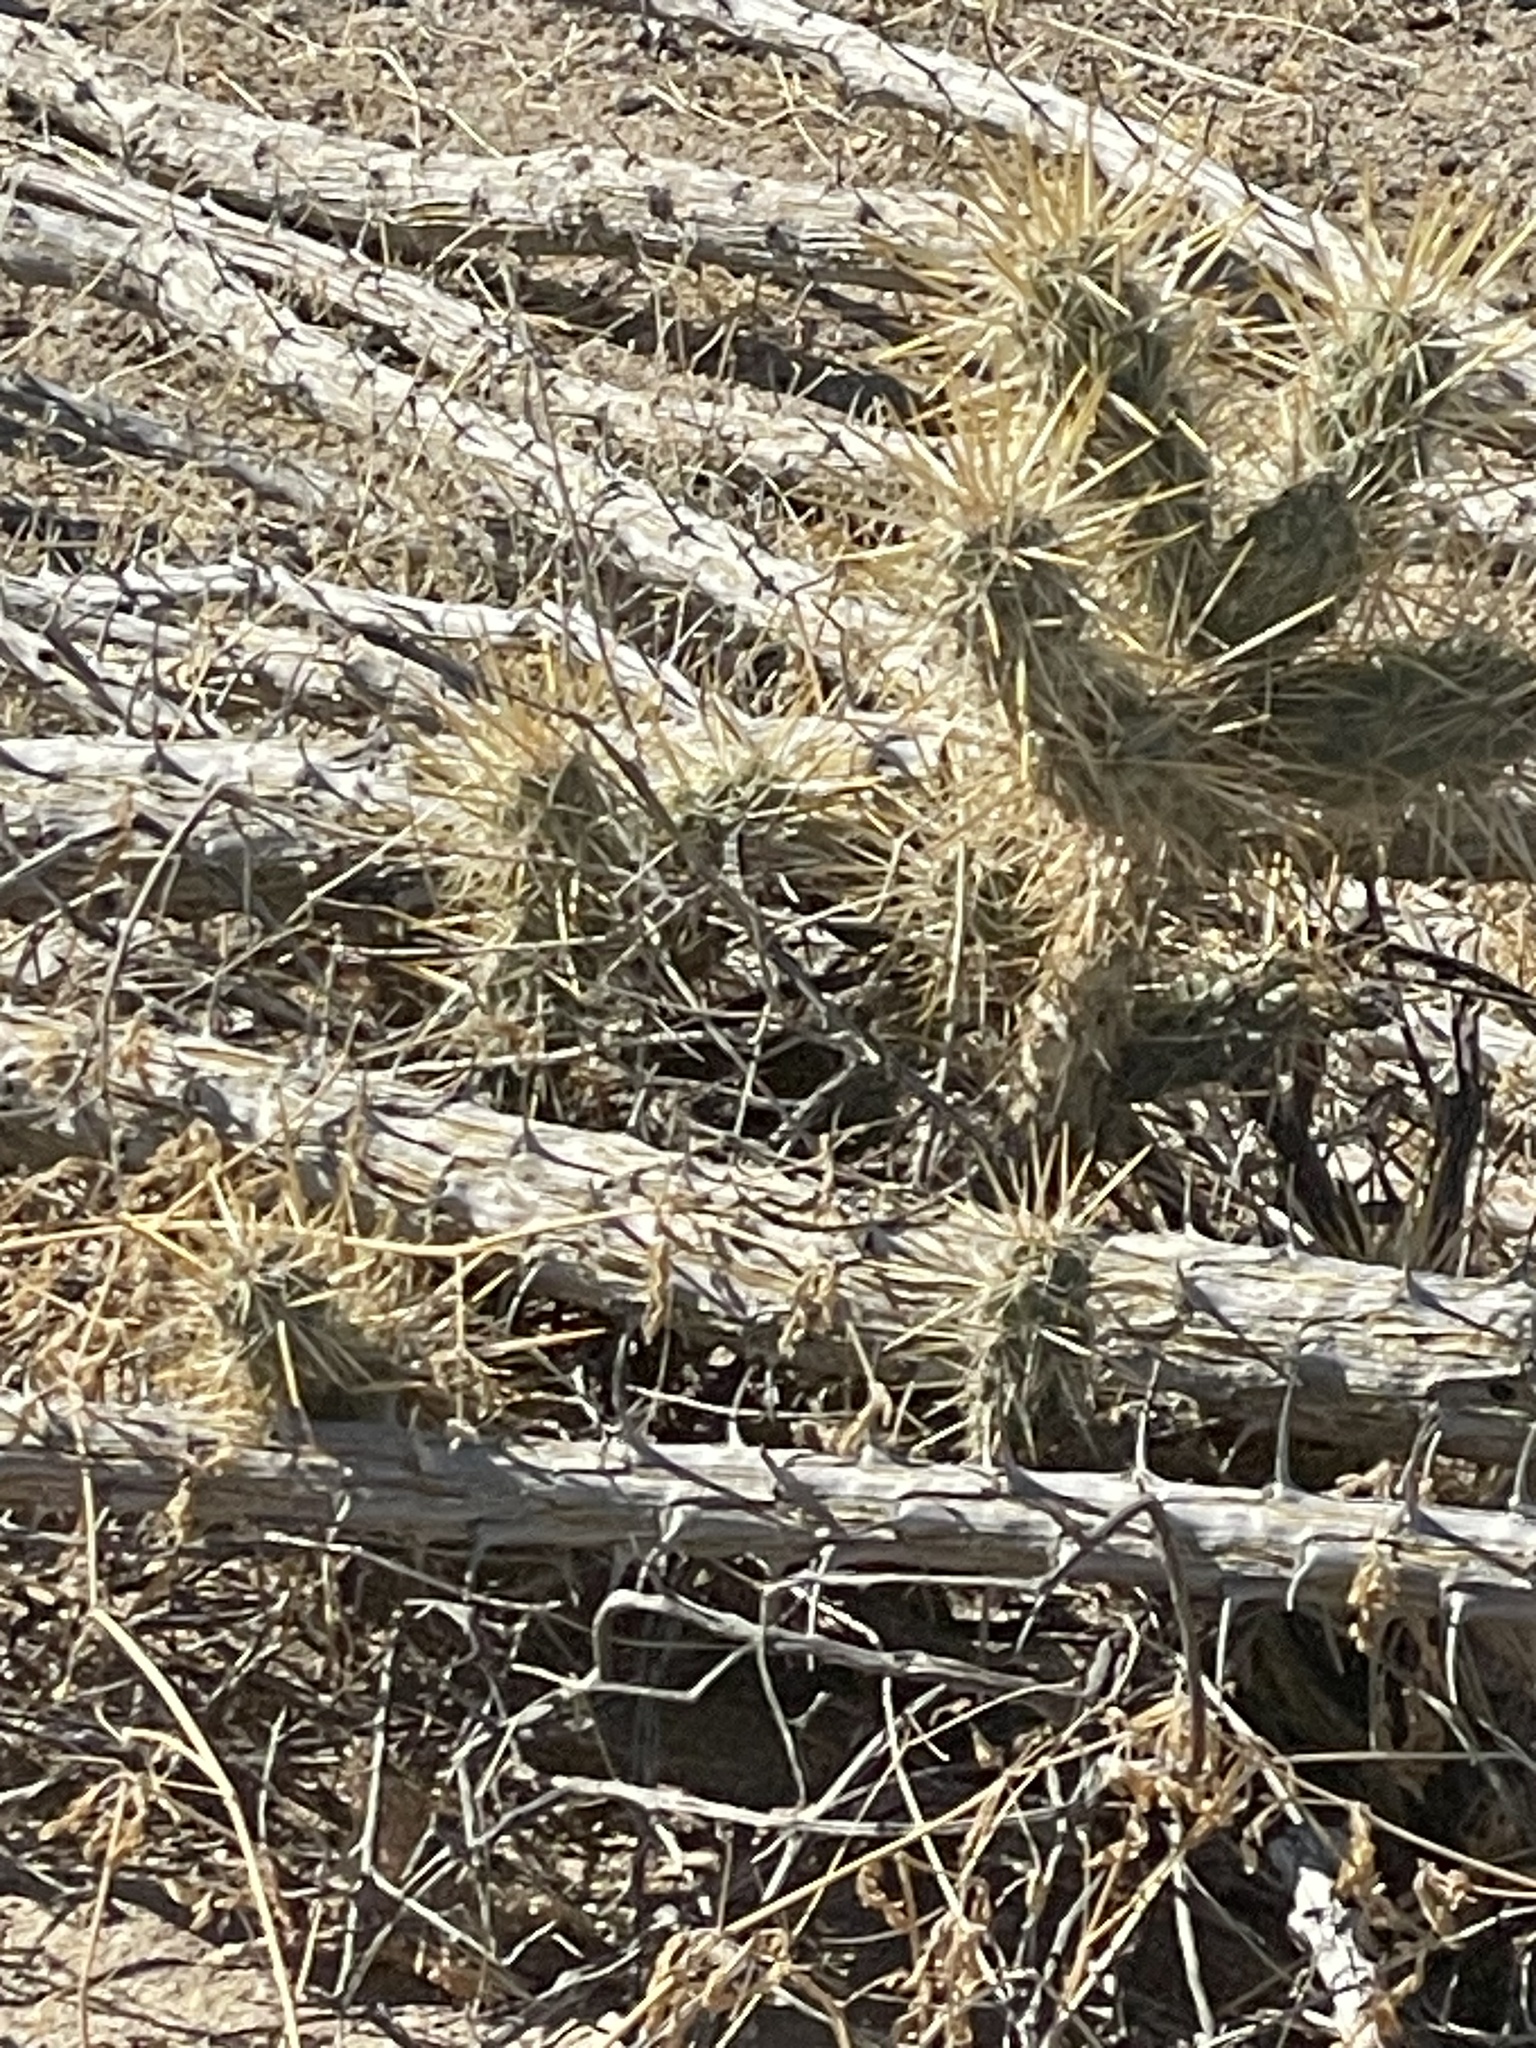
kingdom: Plantae
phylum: Tracheophyta
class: Magnoliopsida
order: Caryophyllales
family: Cactaceae
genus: Cylindropuntia
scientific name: Cylindropuntia echinocarpa
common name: Ground cholla
